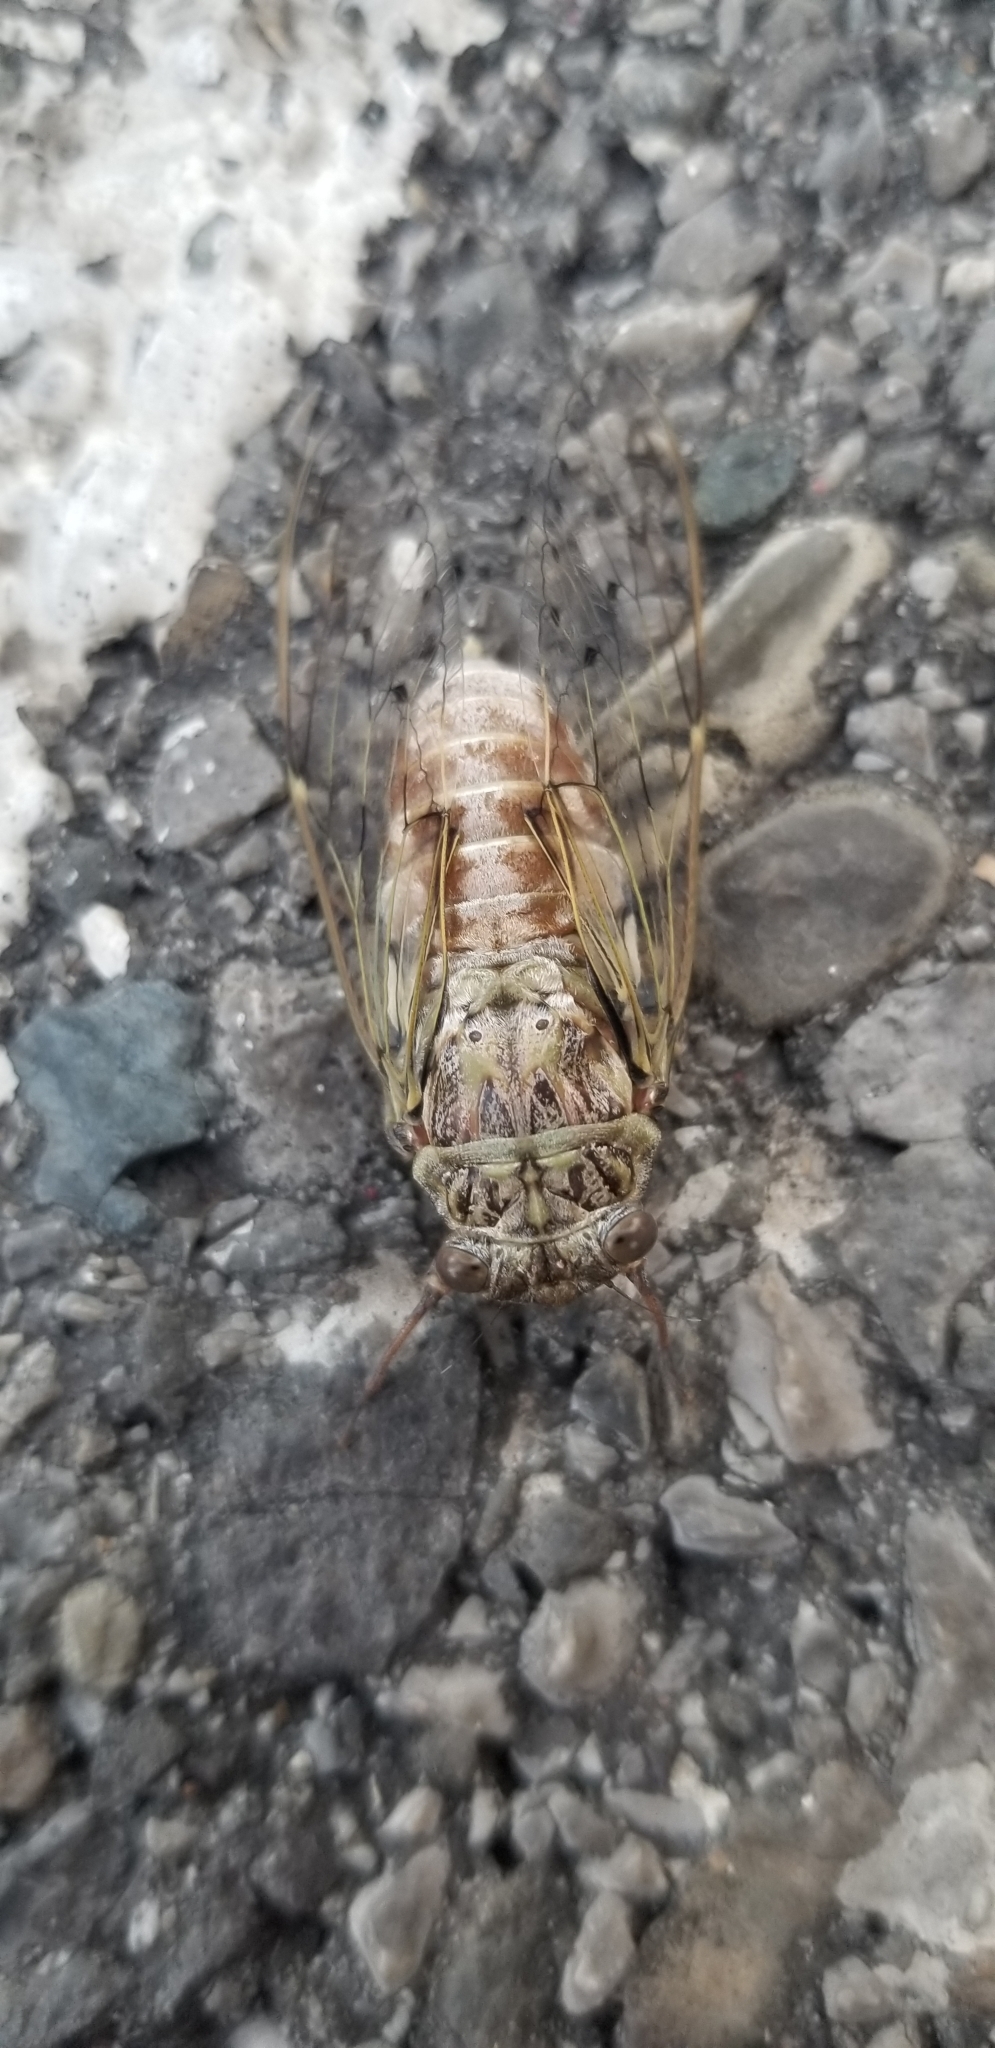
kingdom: Animalia
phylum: Arthropoda
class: Insecta
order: Hemiptera
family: Cicadidae
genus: Cicada
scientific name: Cicada orni
